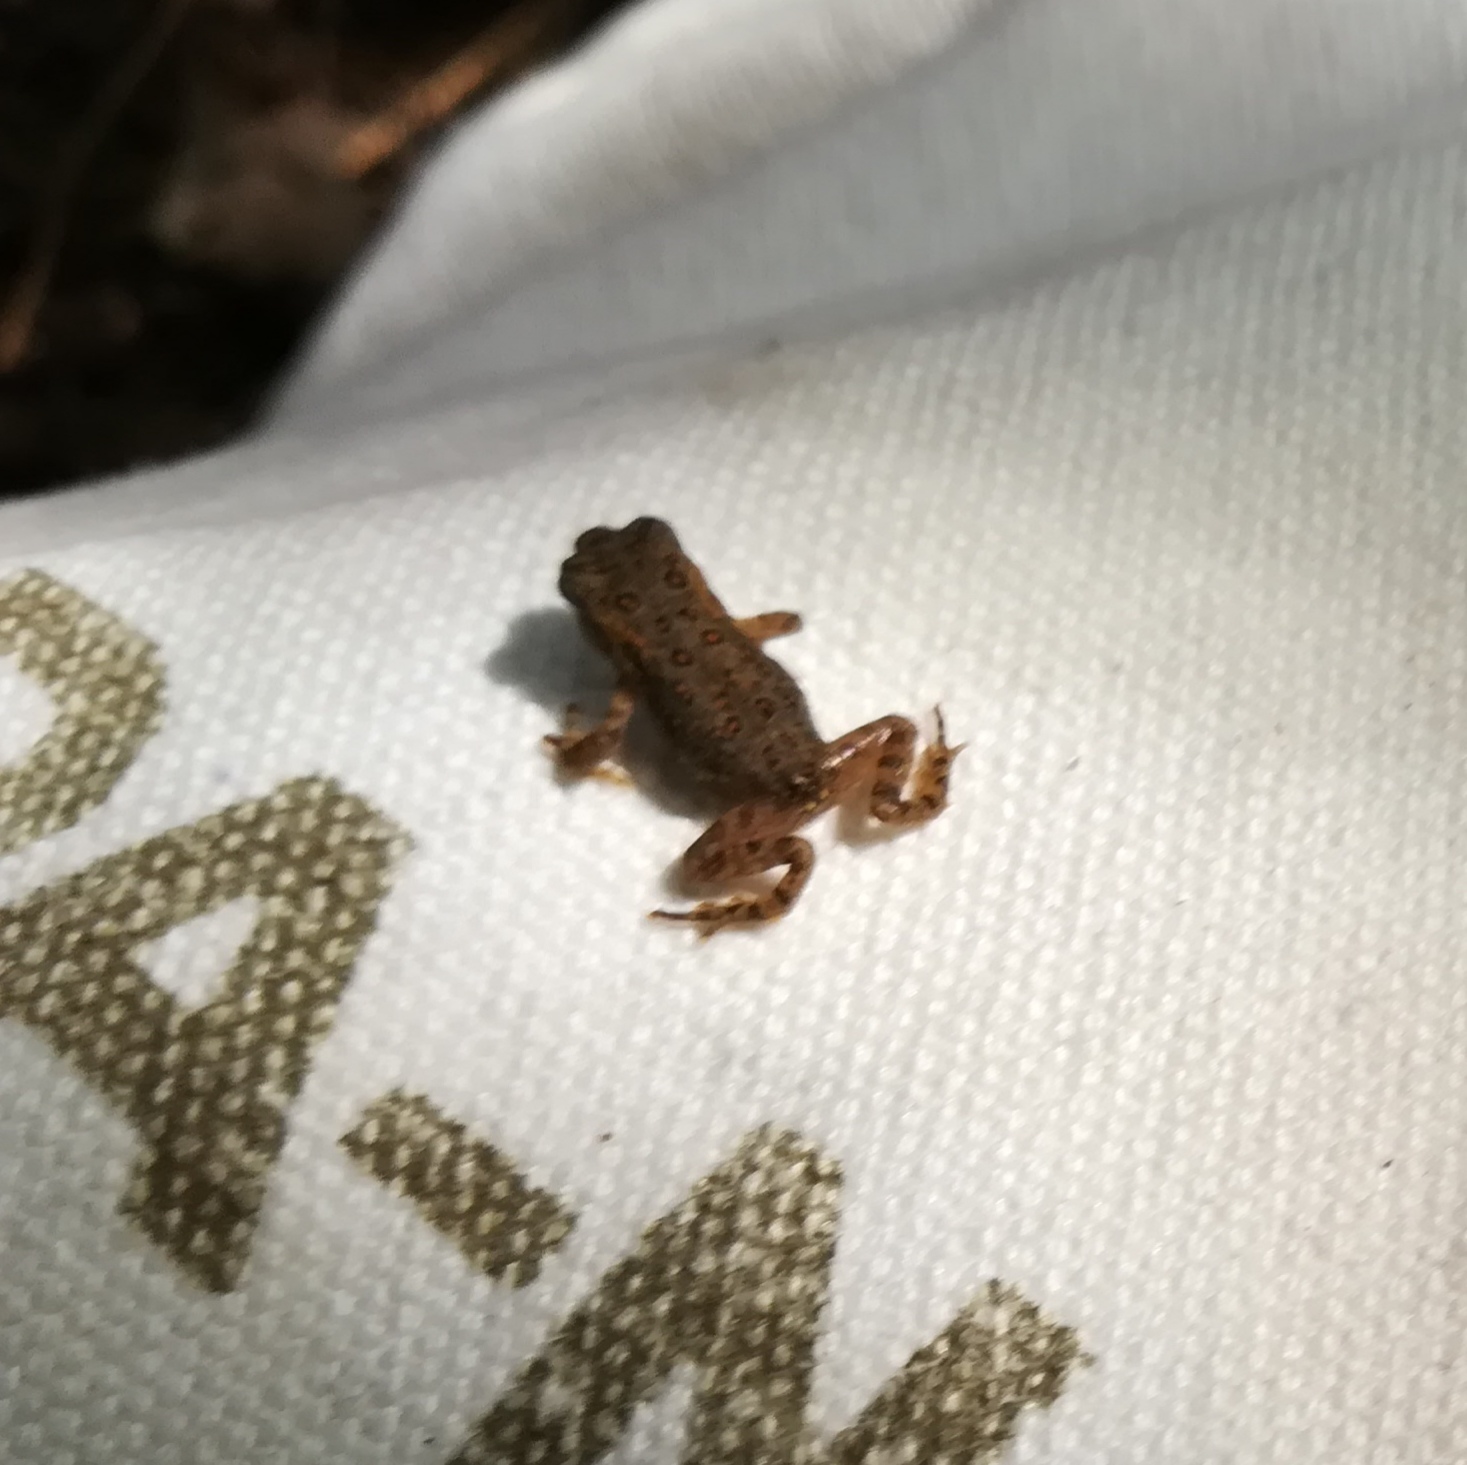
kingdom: Animalia
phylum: Chordata
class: Amphibia
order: Anura
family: Bufonidae
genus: Anaxyrus
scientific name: Anaxyrus americanus
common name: American toad
